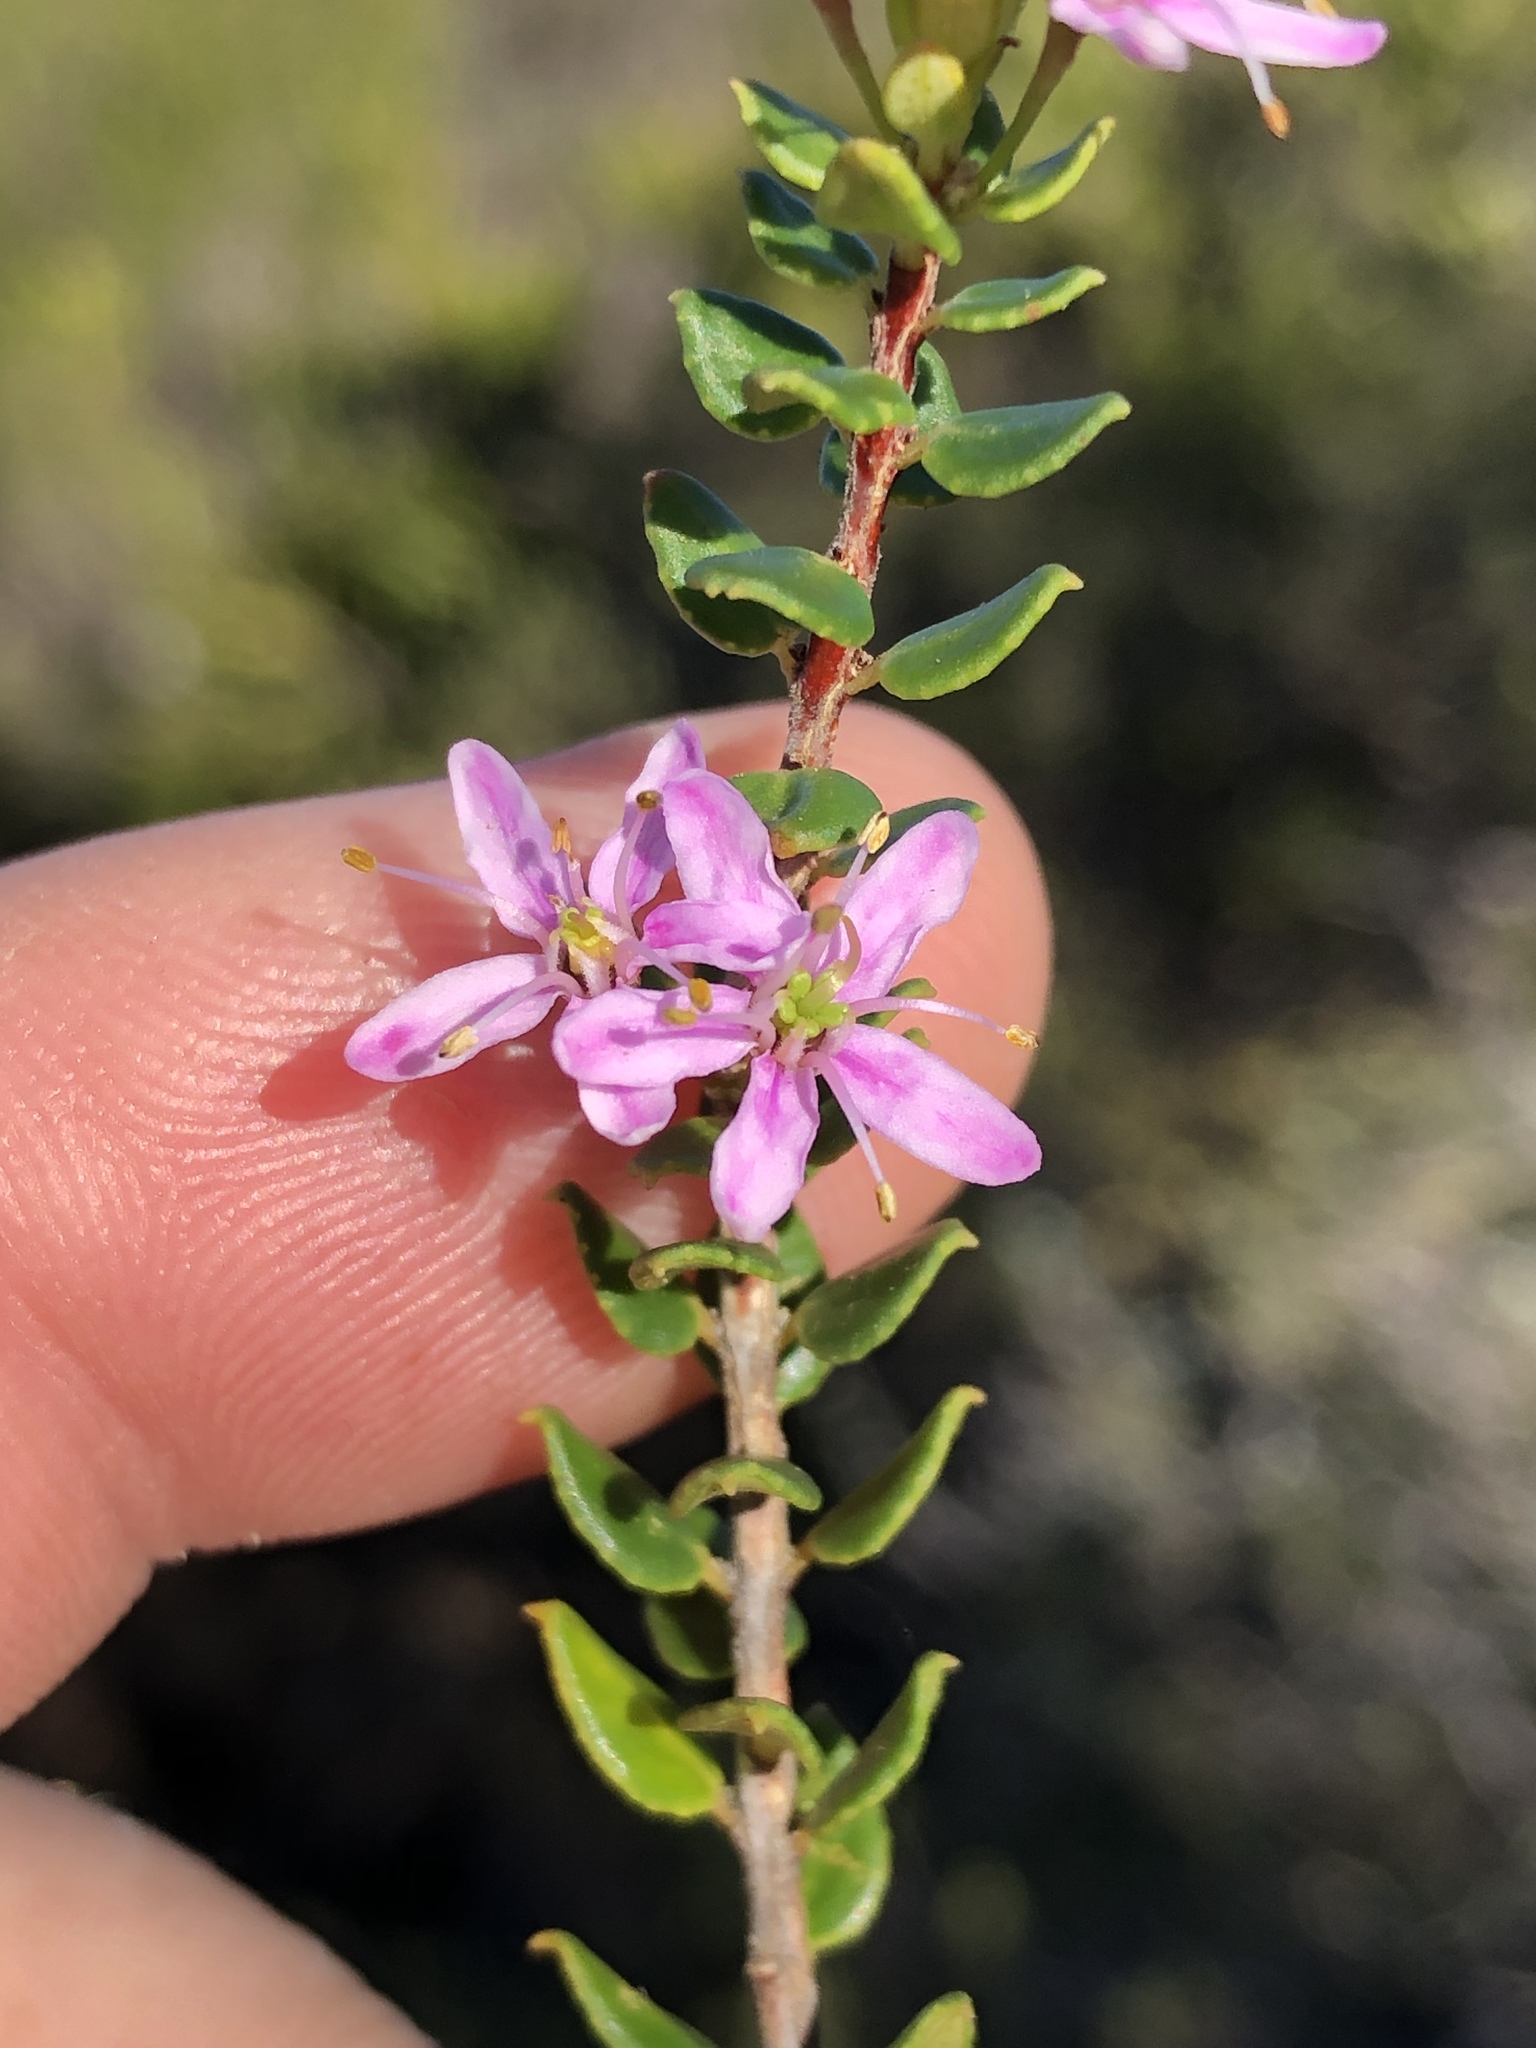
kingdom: Plantae
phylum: Tracheophyta
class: Magnoliopsida
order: Sapindales
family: Rutaceae
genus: Agathosma
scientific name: Agathosma ovata
